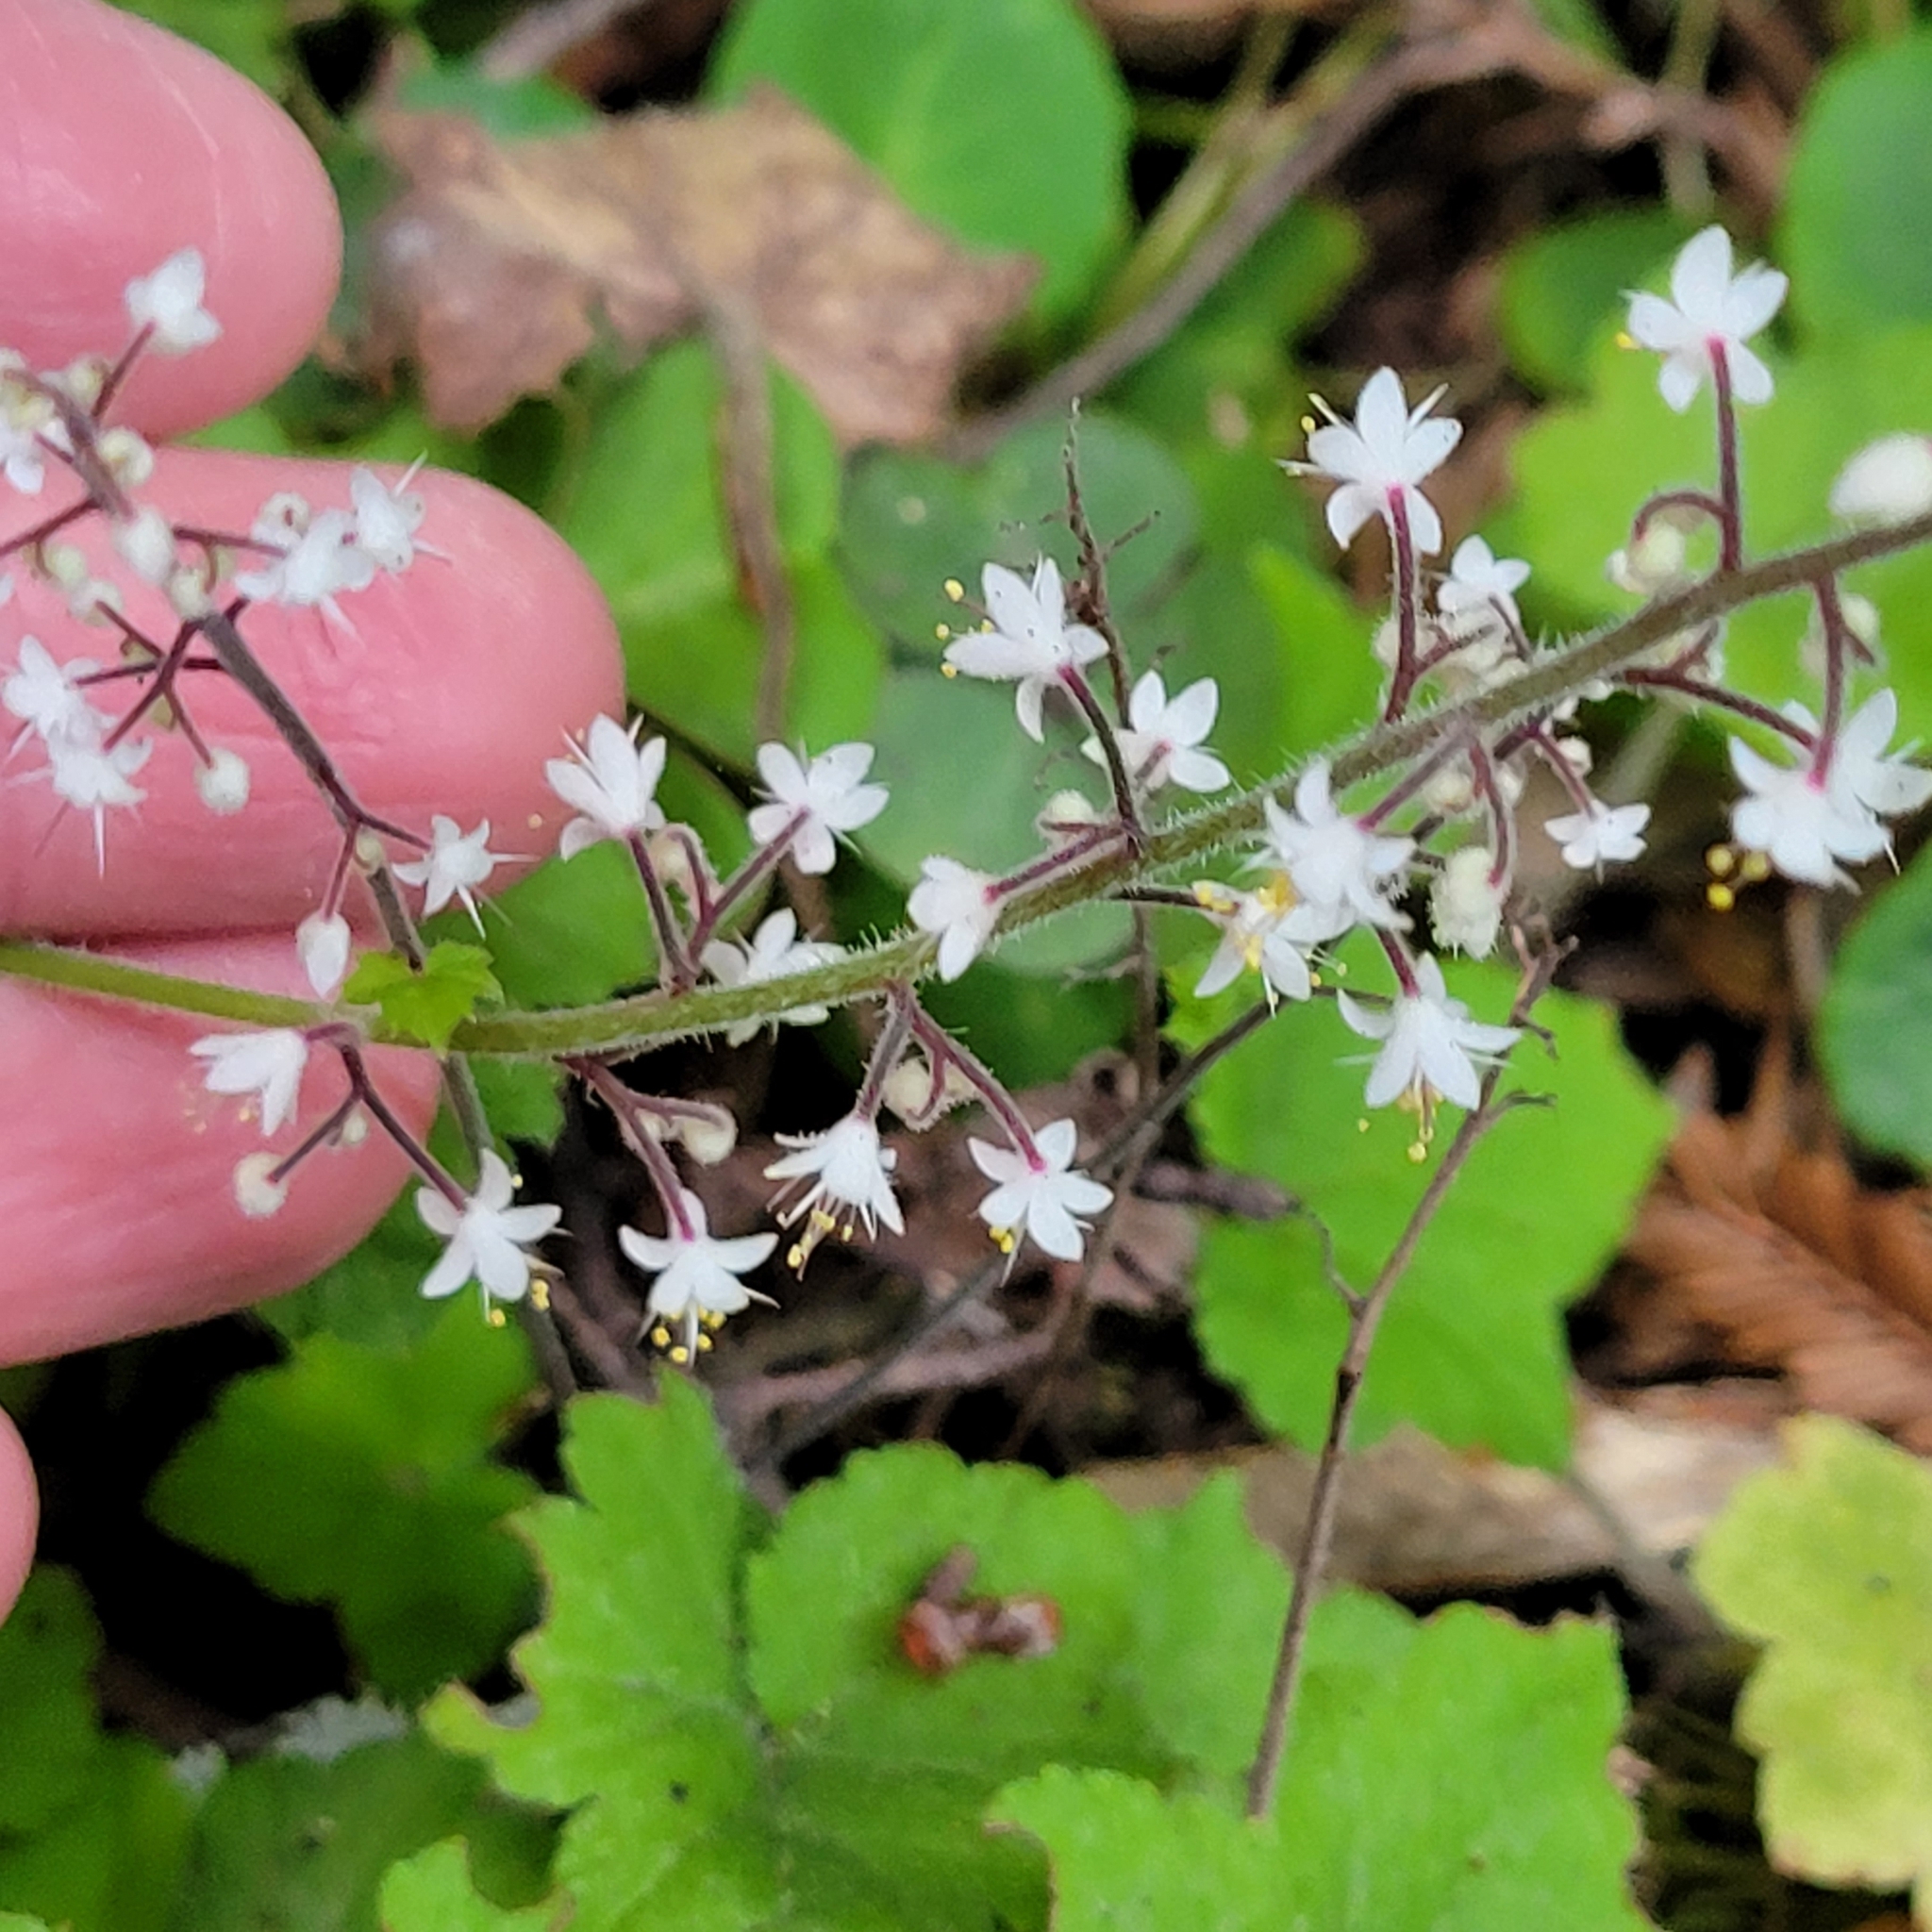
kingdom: Plantae
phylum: Tracheophyta
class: Magnoliopsida
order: Saxifragales
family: Saxifragaceae
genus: Tiarella
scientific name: Tiarella trifoliata
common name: Sugar-scoop
